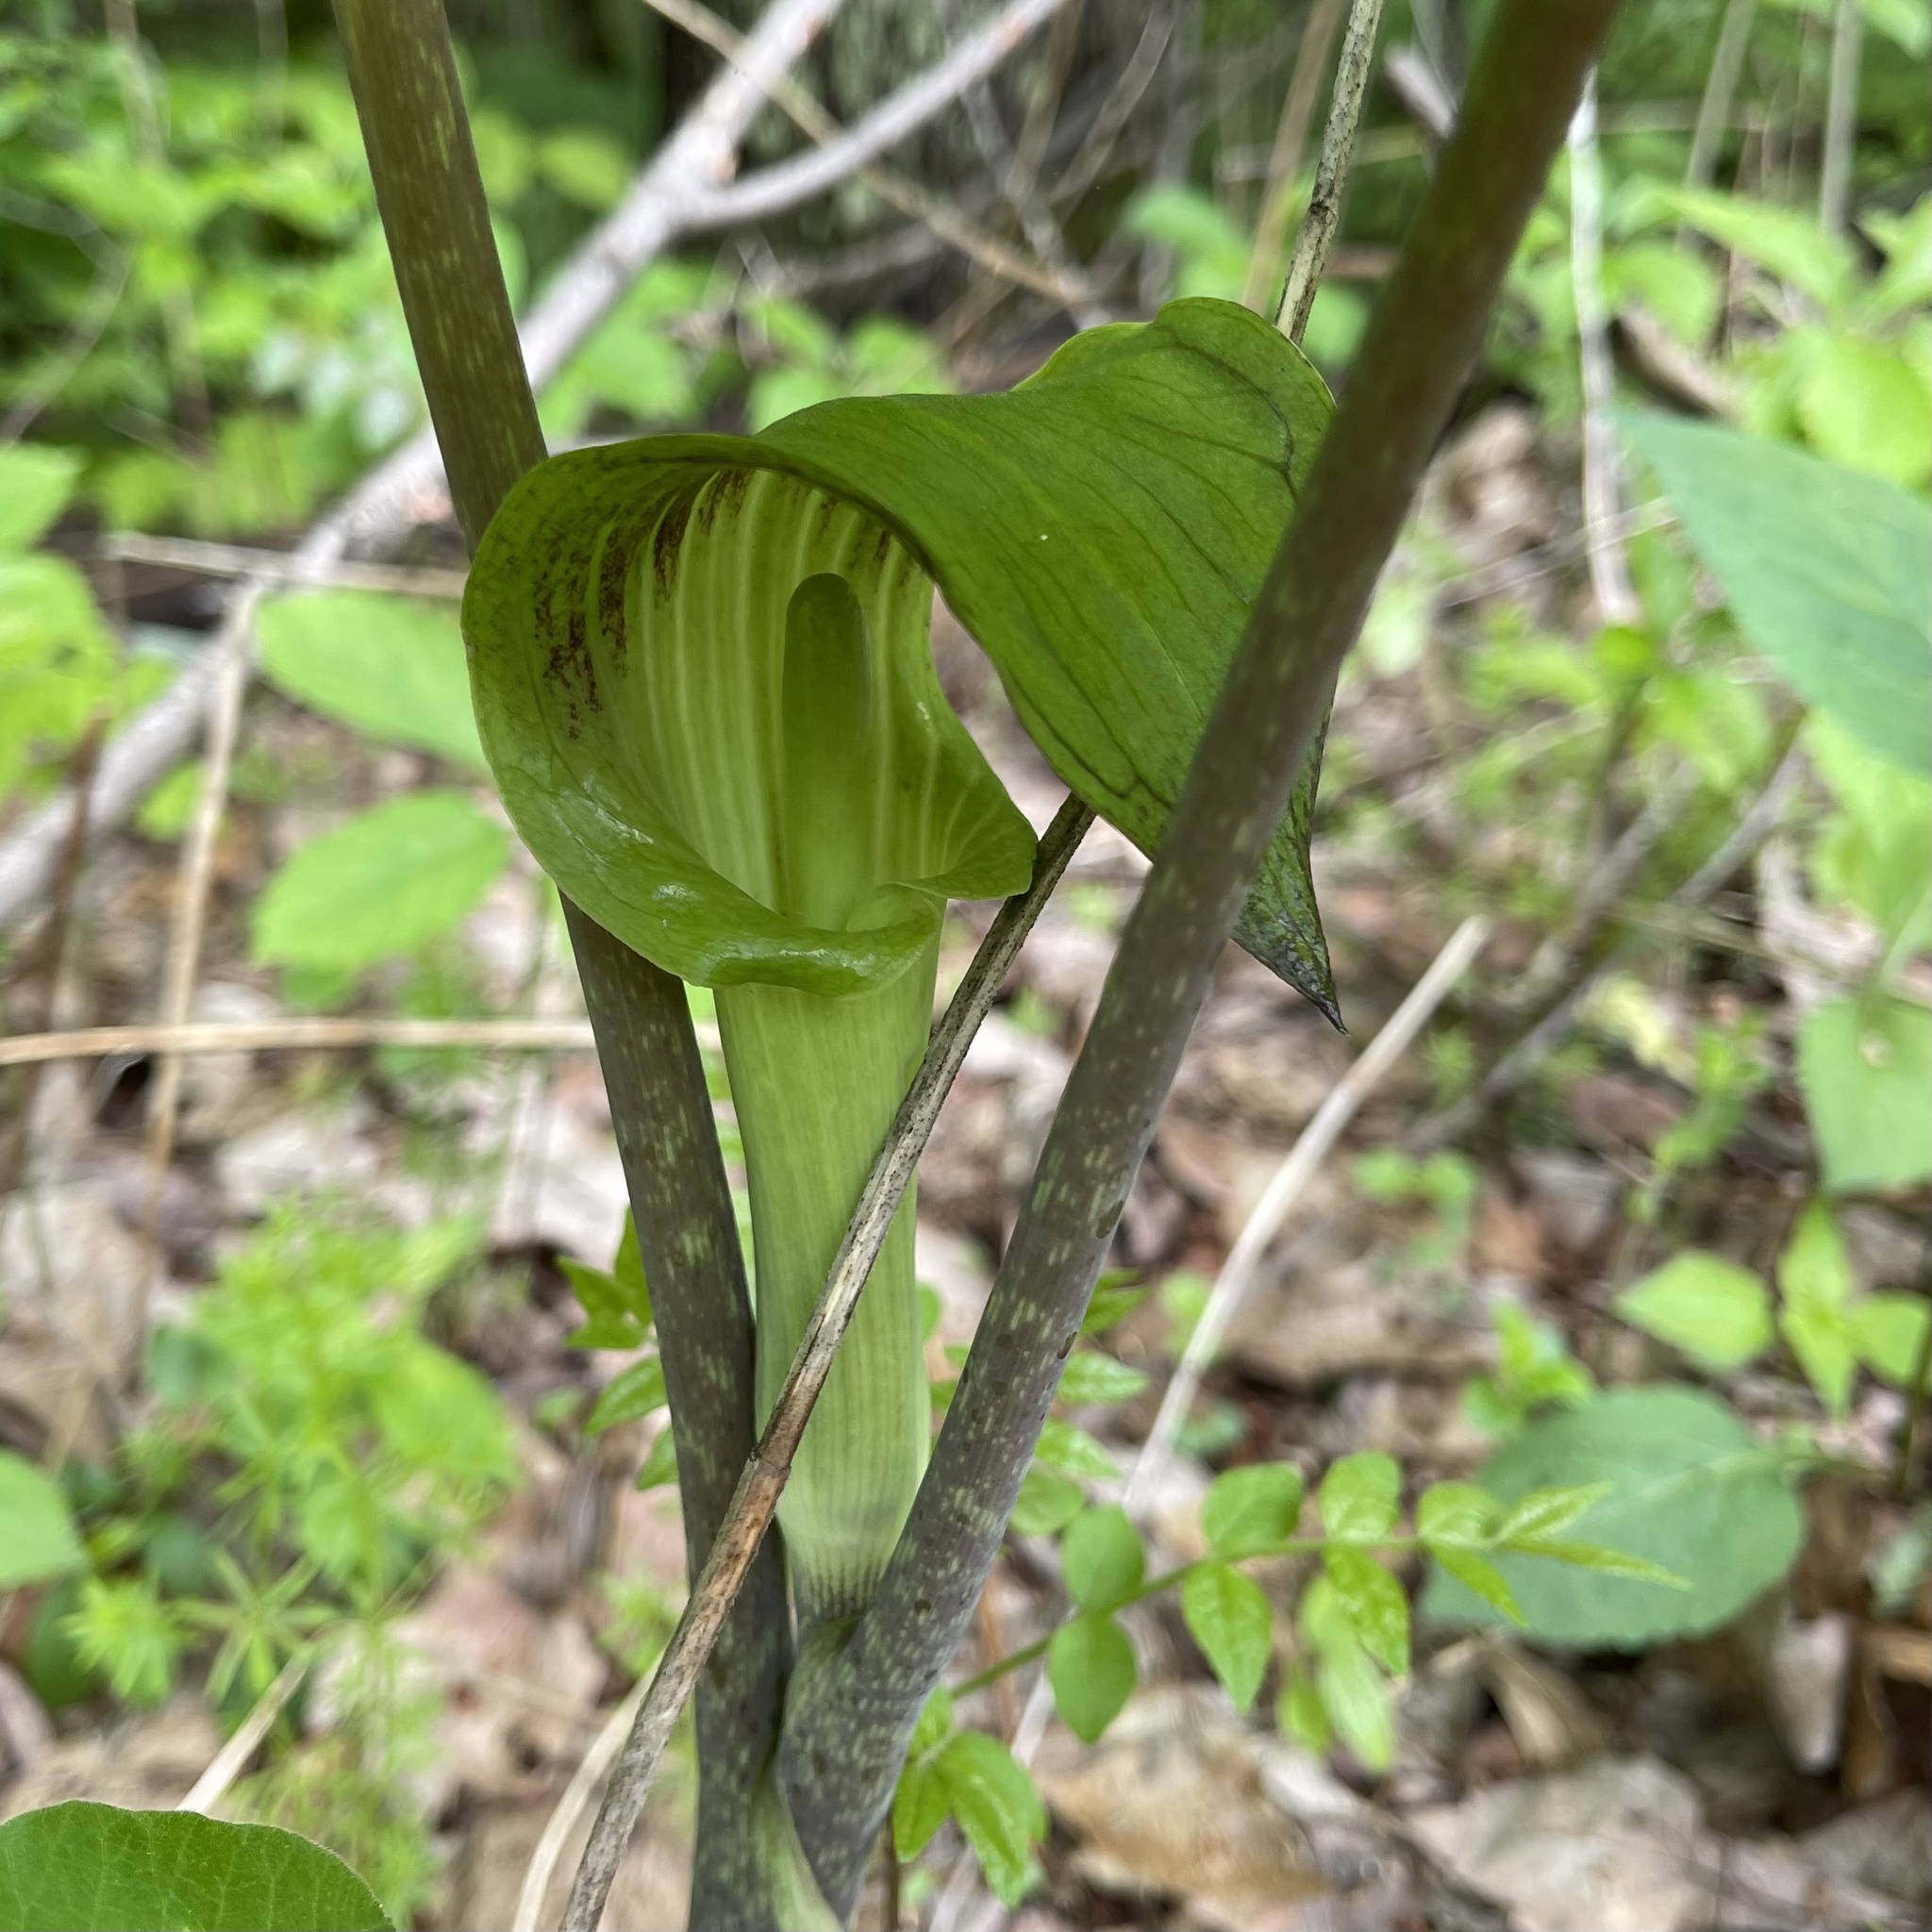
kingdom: Plantae
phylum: Tracheophyta
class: Liliopsida
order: Alismatales
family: Araceae
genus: Arisaema
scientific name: Arisaema triphyllum
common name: Jack-in-the-pulpit
